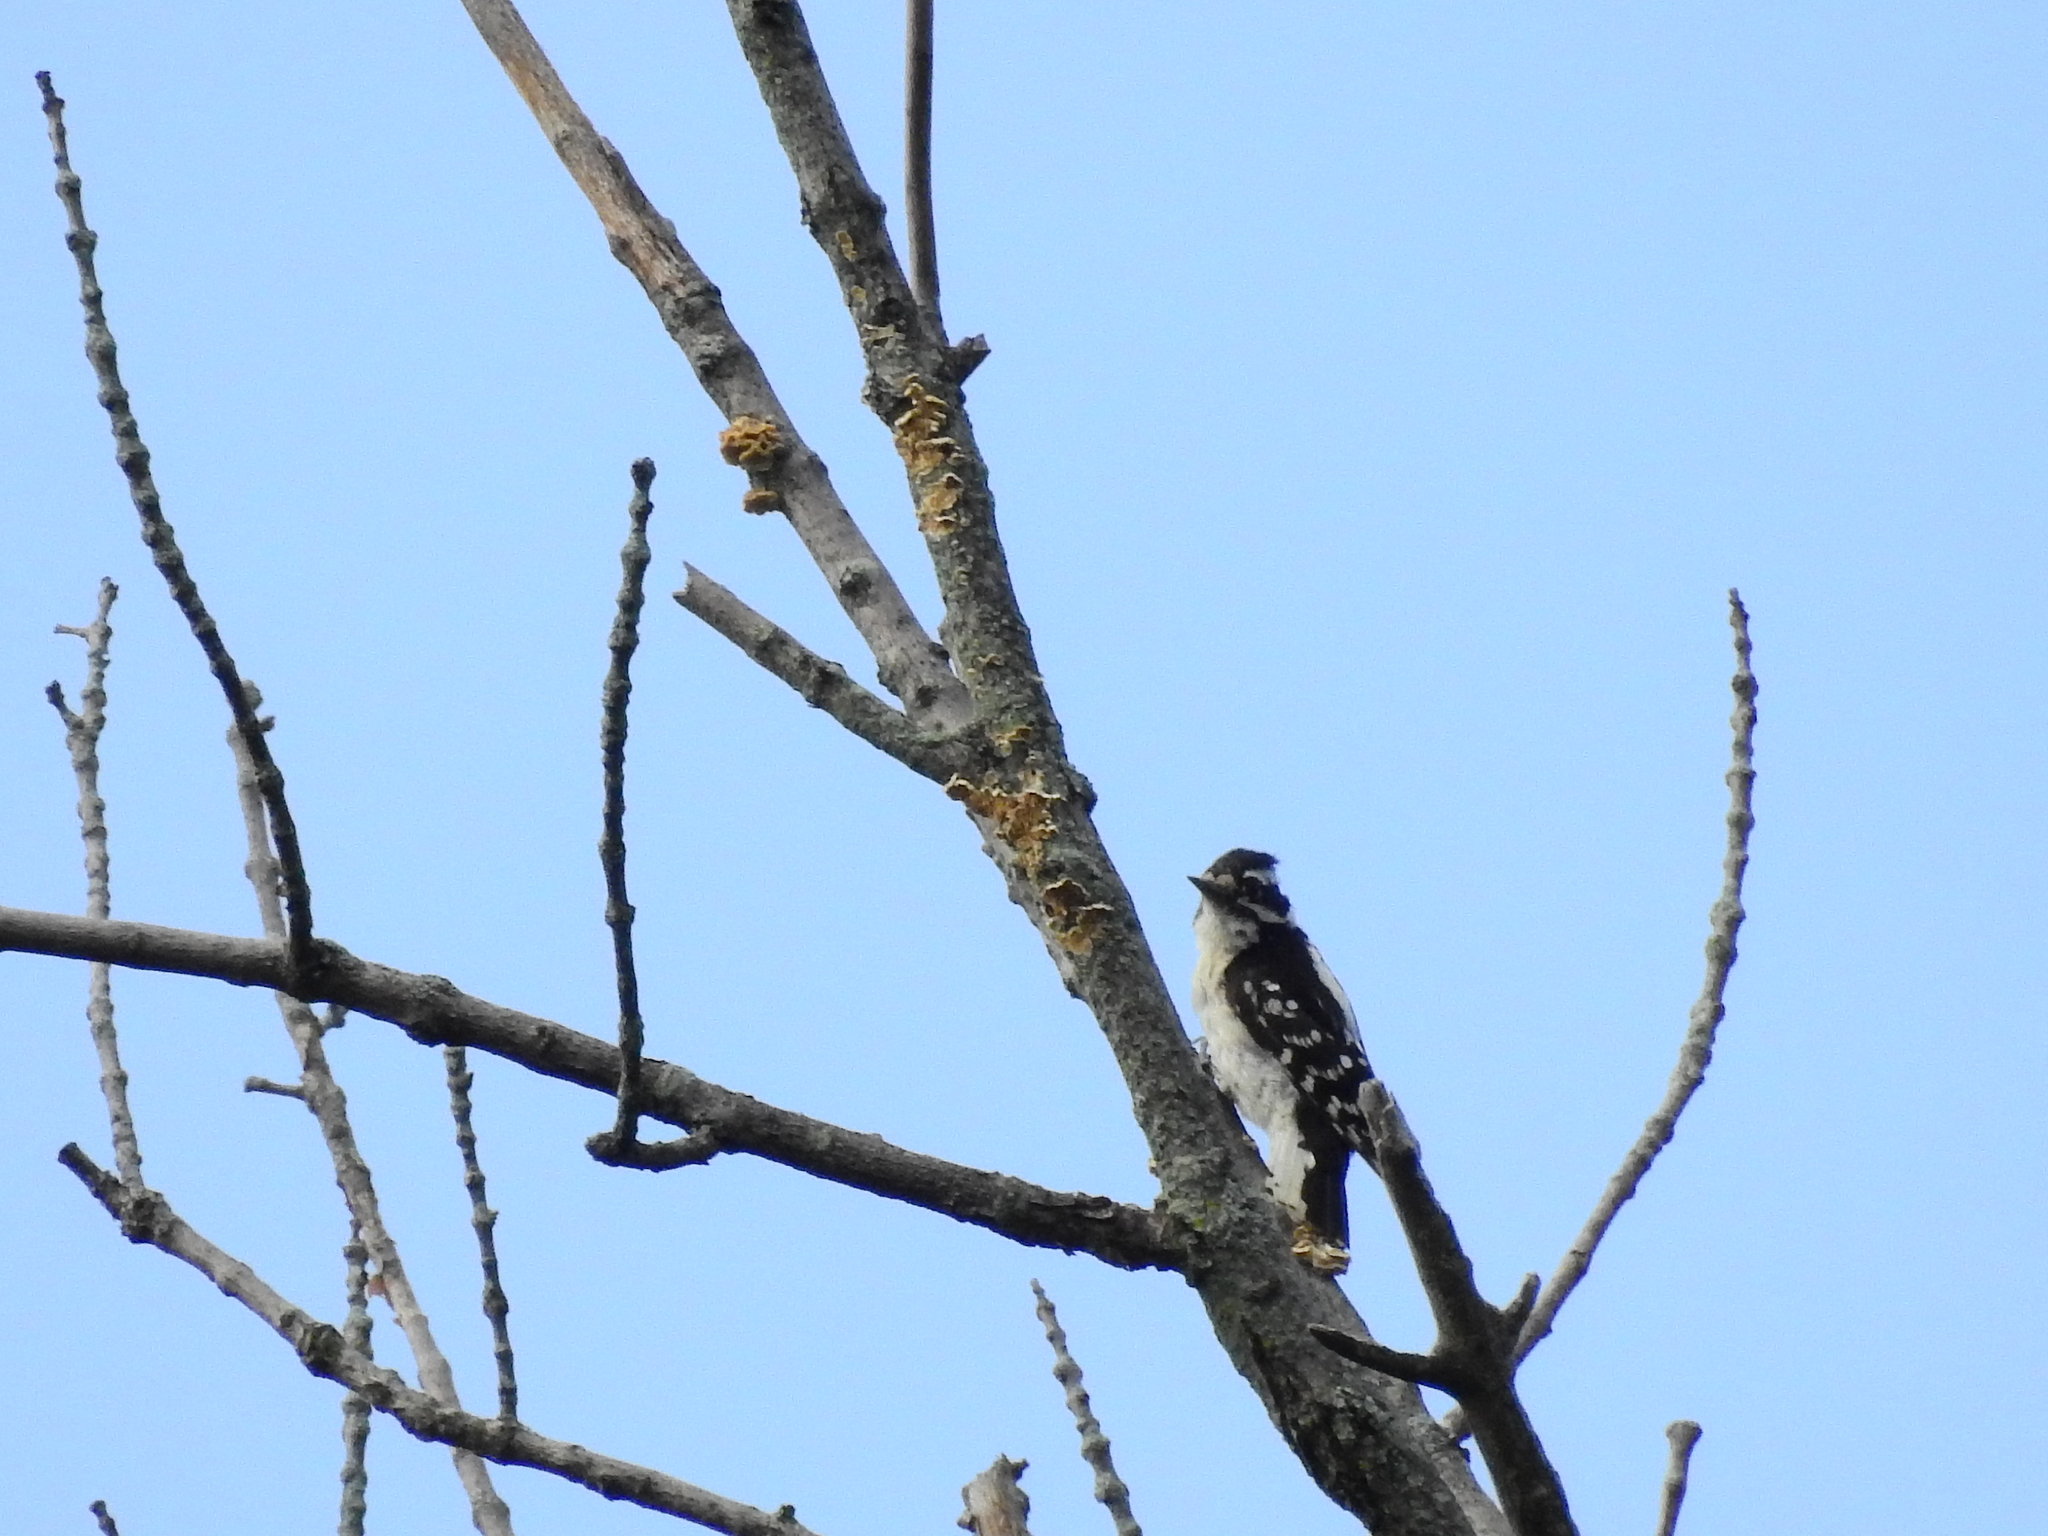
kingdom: Animalia
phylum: Chordata
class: Aves
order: Piciformes
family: Picidae
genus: Dryobates
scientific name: Dryobates pubescens
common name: Downy woodpecker
